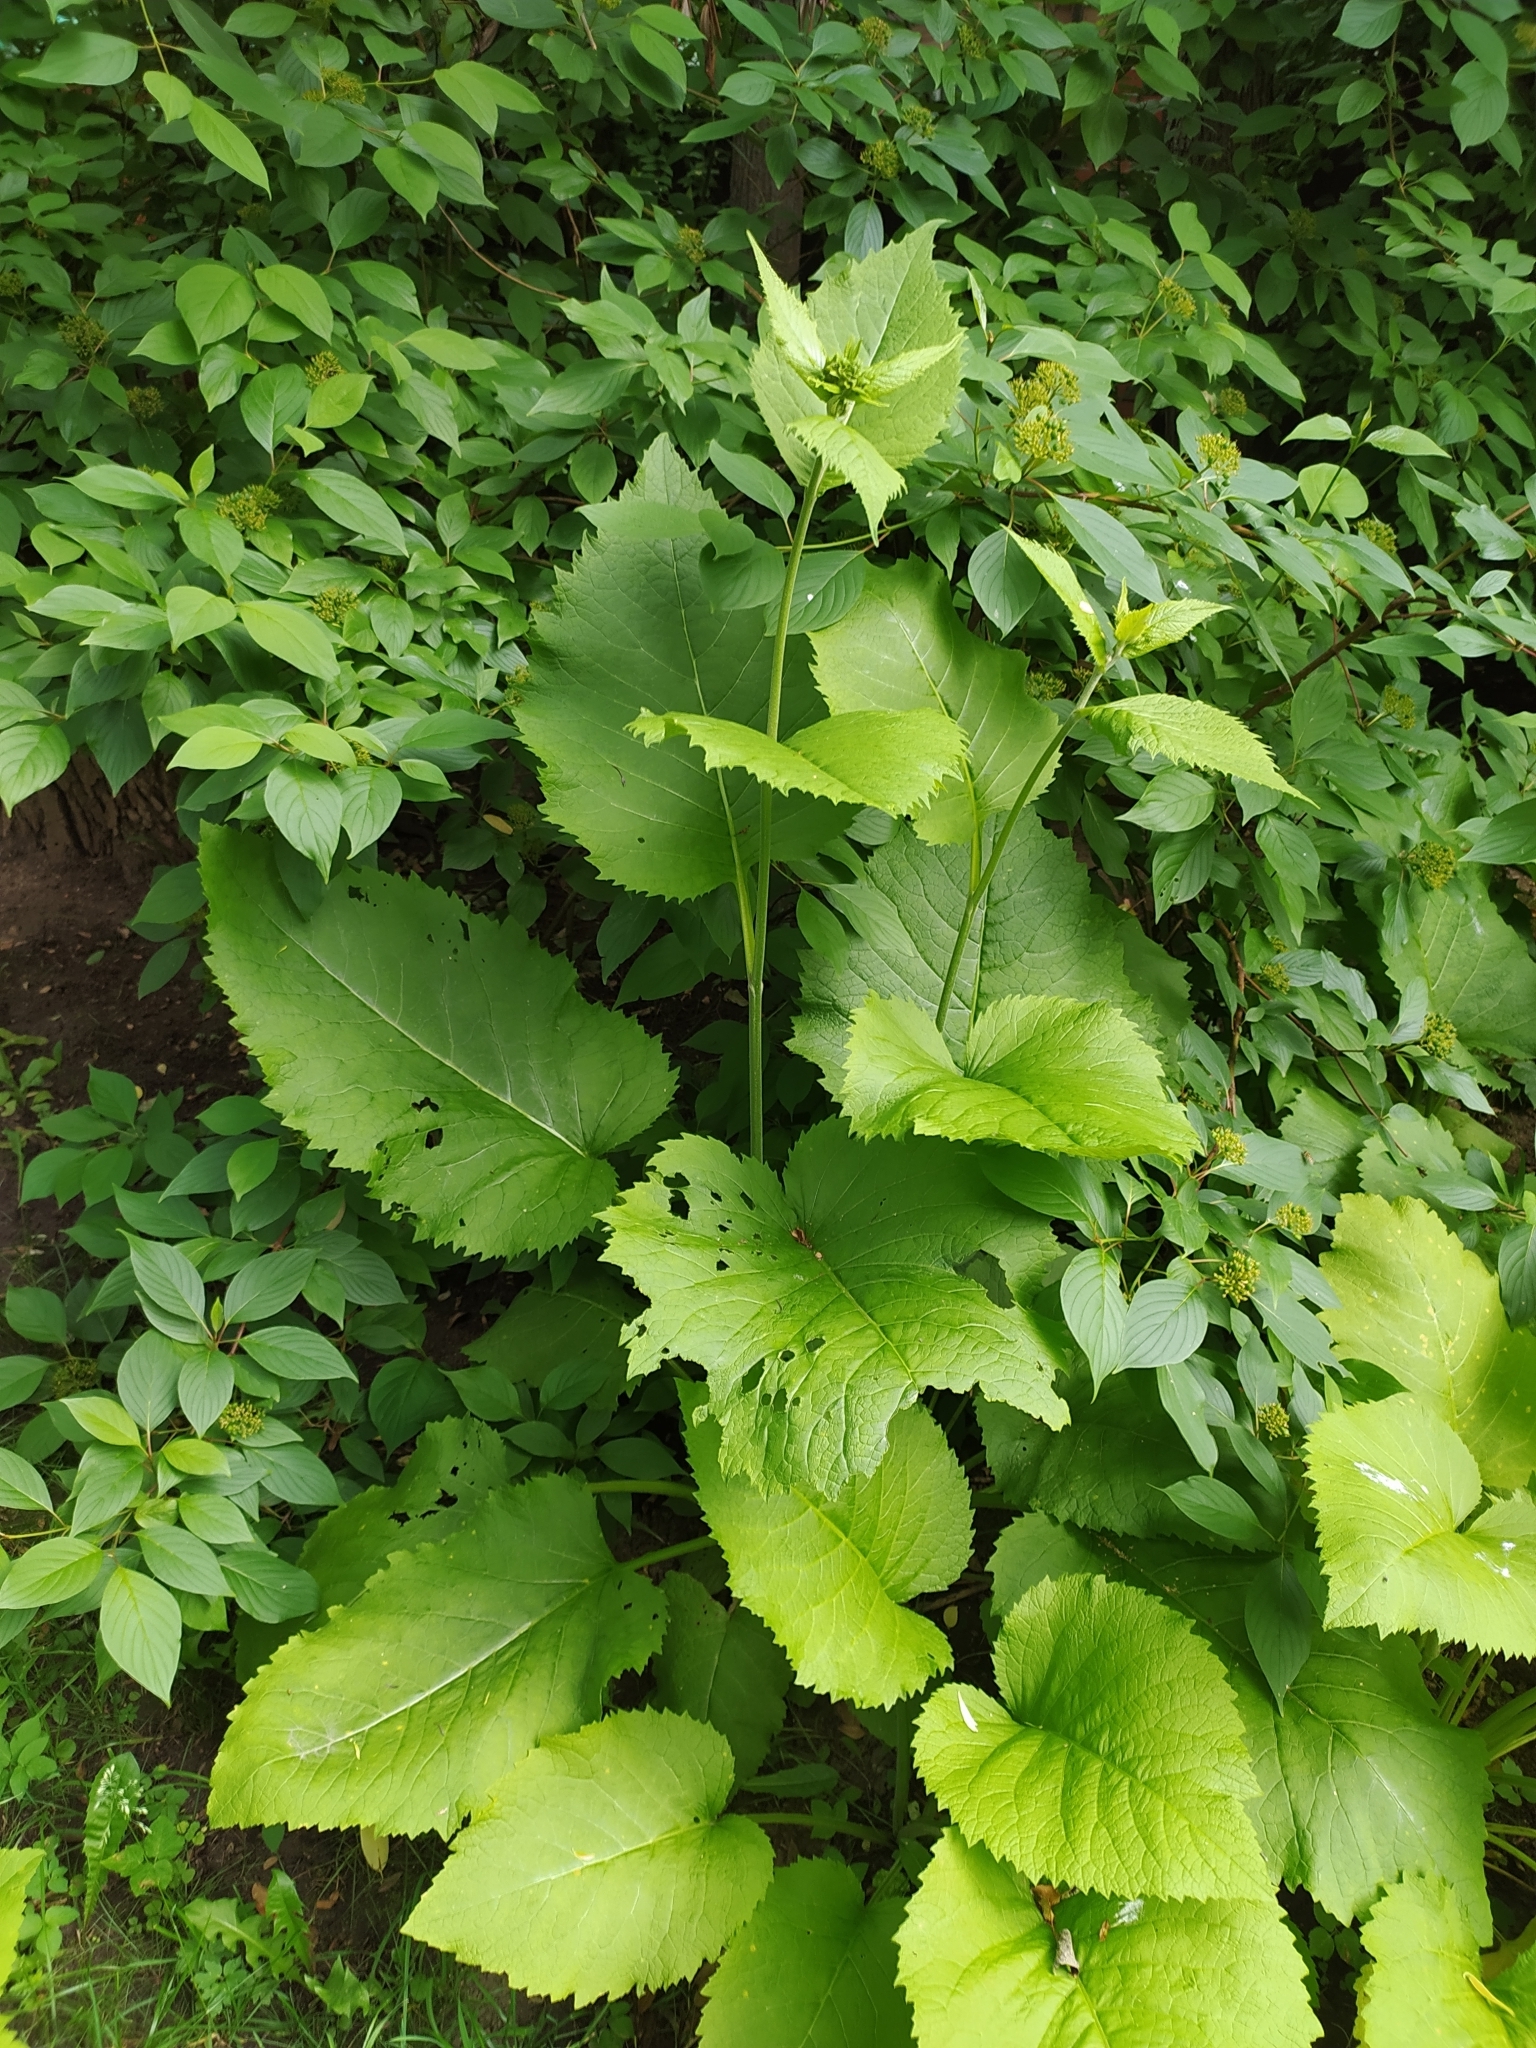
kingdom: Plantae
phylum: Tracheophyta
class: Magnoliopsida
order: Asterales
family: Asteraceae
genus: Telekia
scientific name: Telekia speciosa
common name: Yellow oxeye
